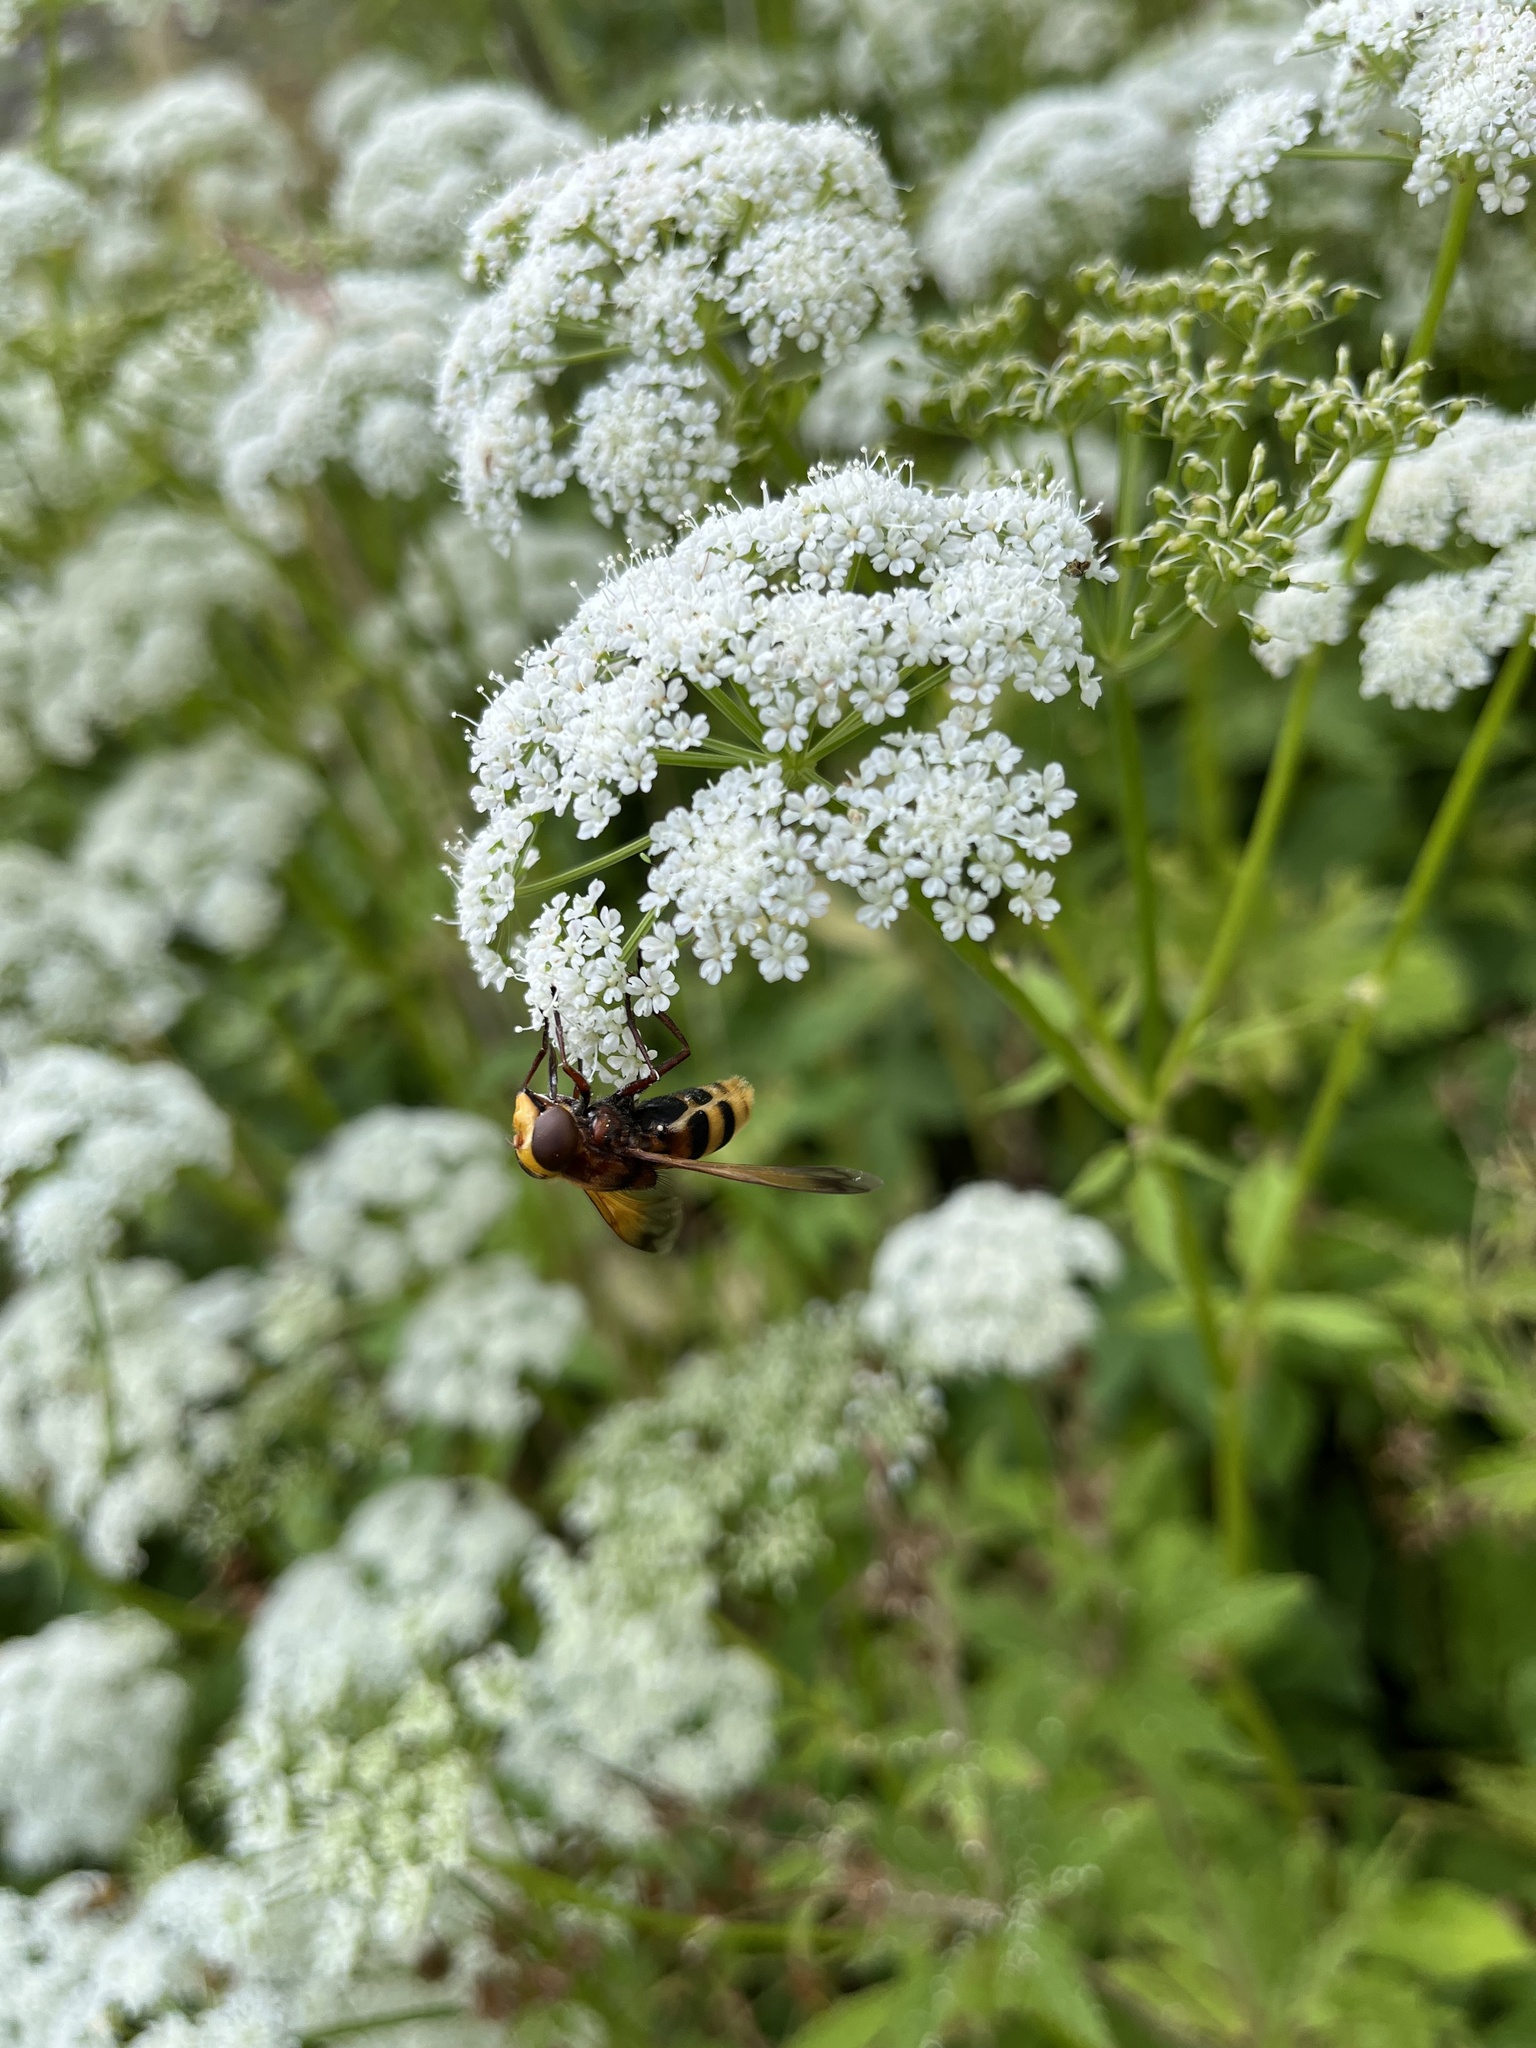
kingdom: Animalia
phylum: Arthropoda
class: Insecta
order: Diptera
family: Syrphidae
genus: Volucella
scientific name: Volucella zonaria
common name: Hornet hoverfly
